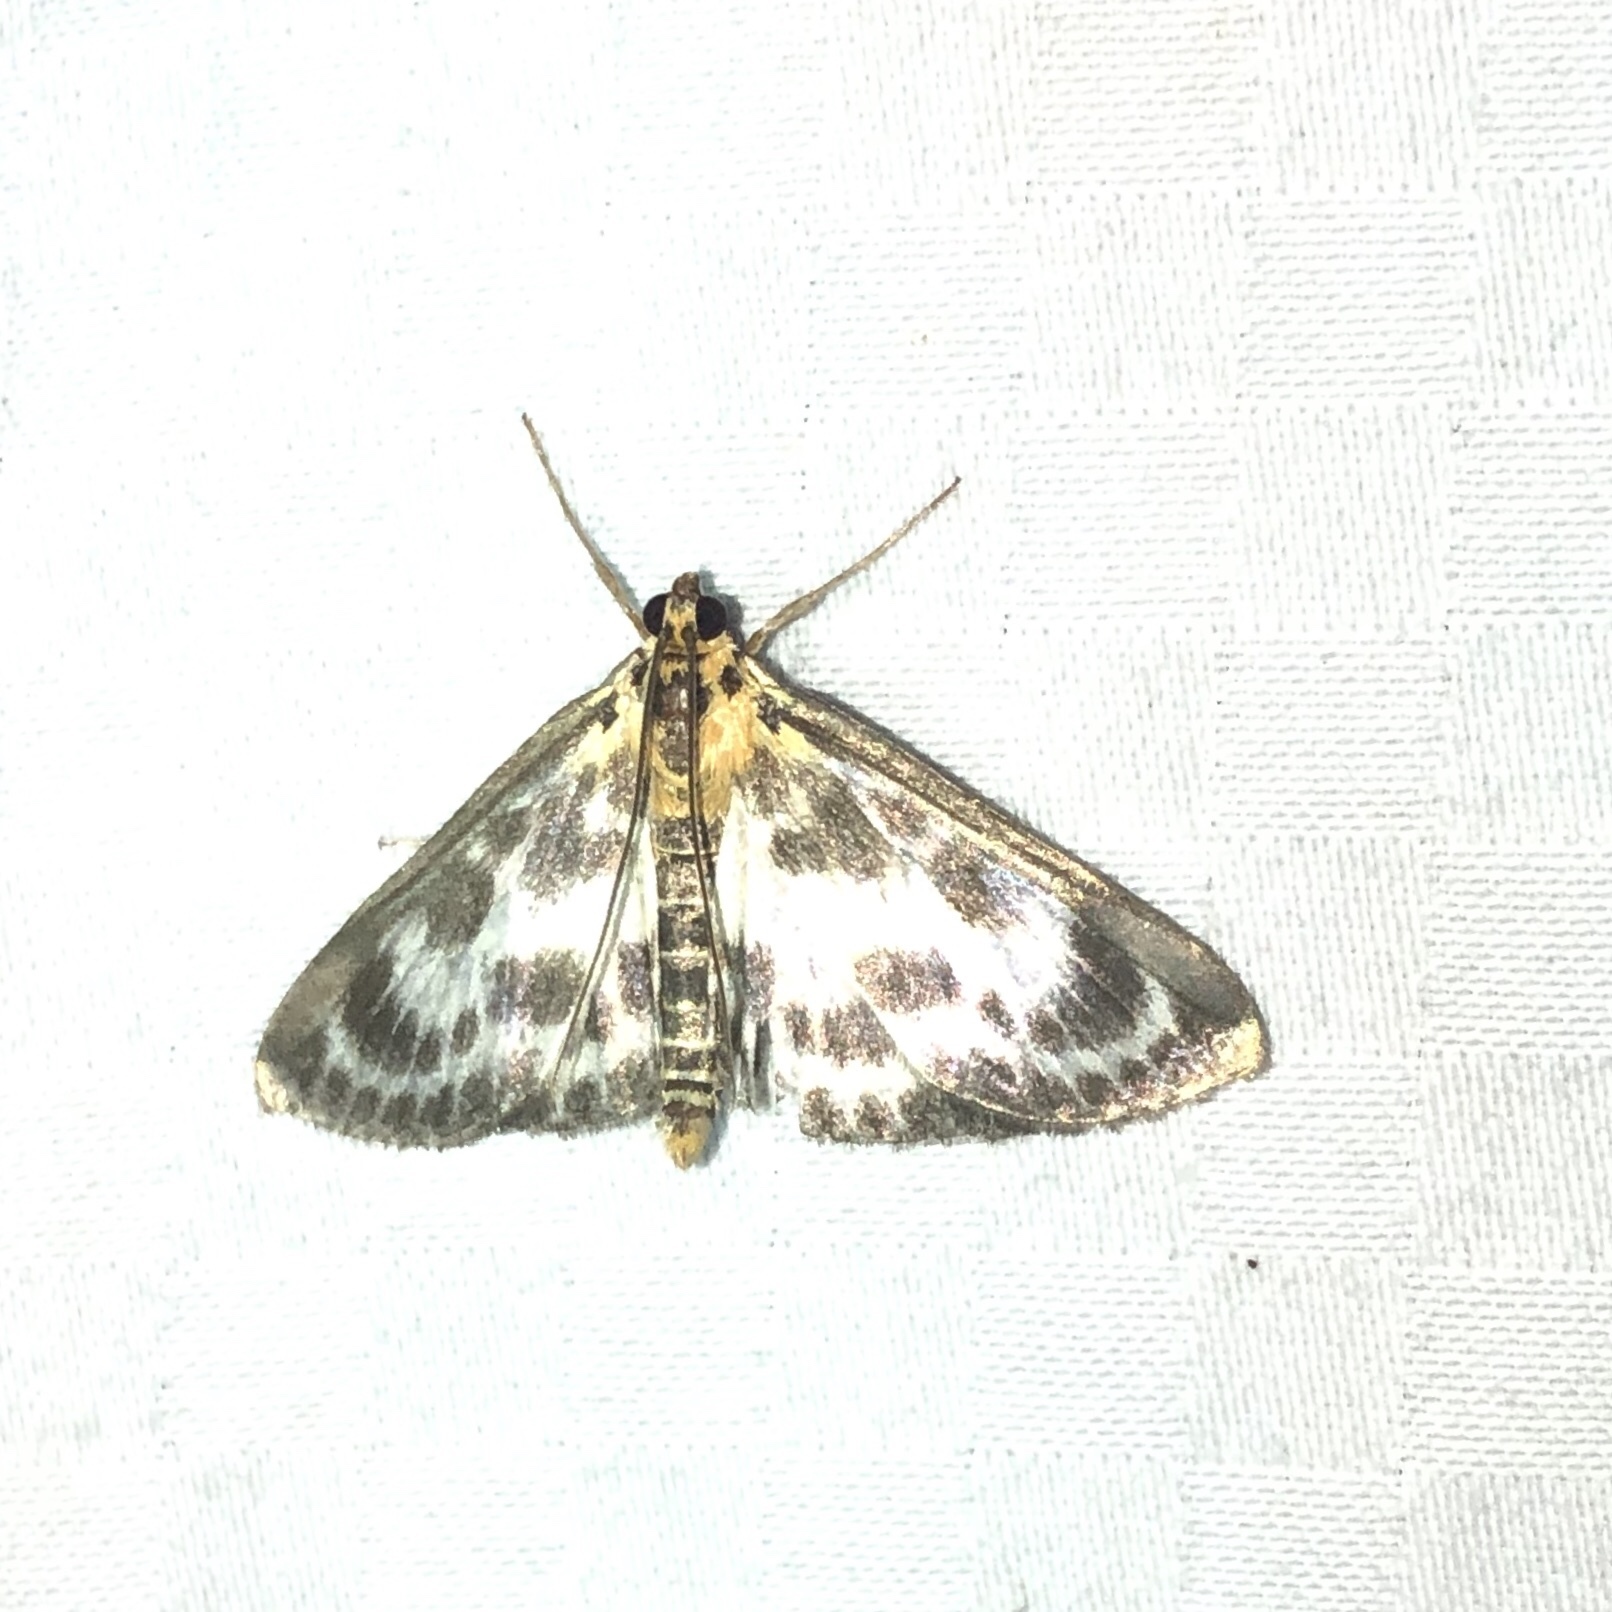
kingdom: Animalia
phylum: Arthropoda
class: Insecta
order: Lepidoptera
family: Crambidae
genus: Anania
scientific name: Anania hortulata
